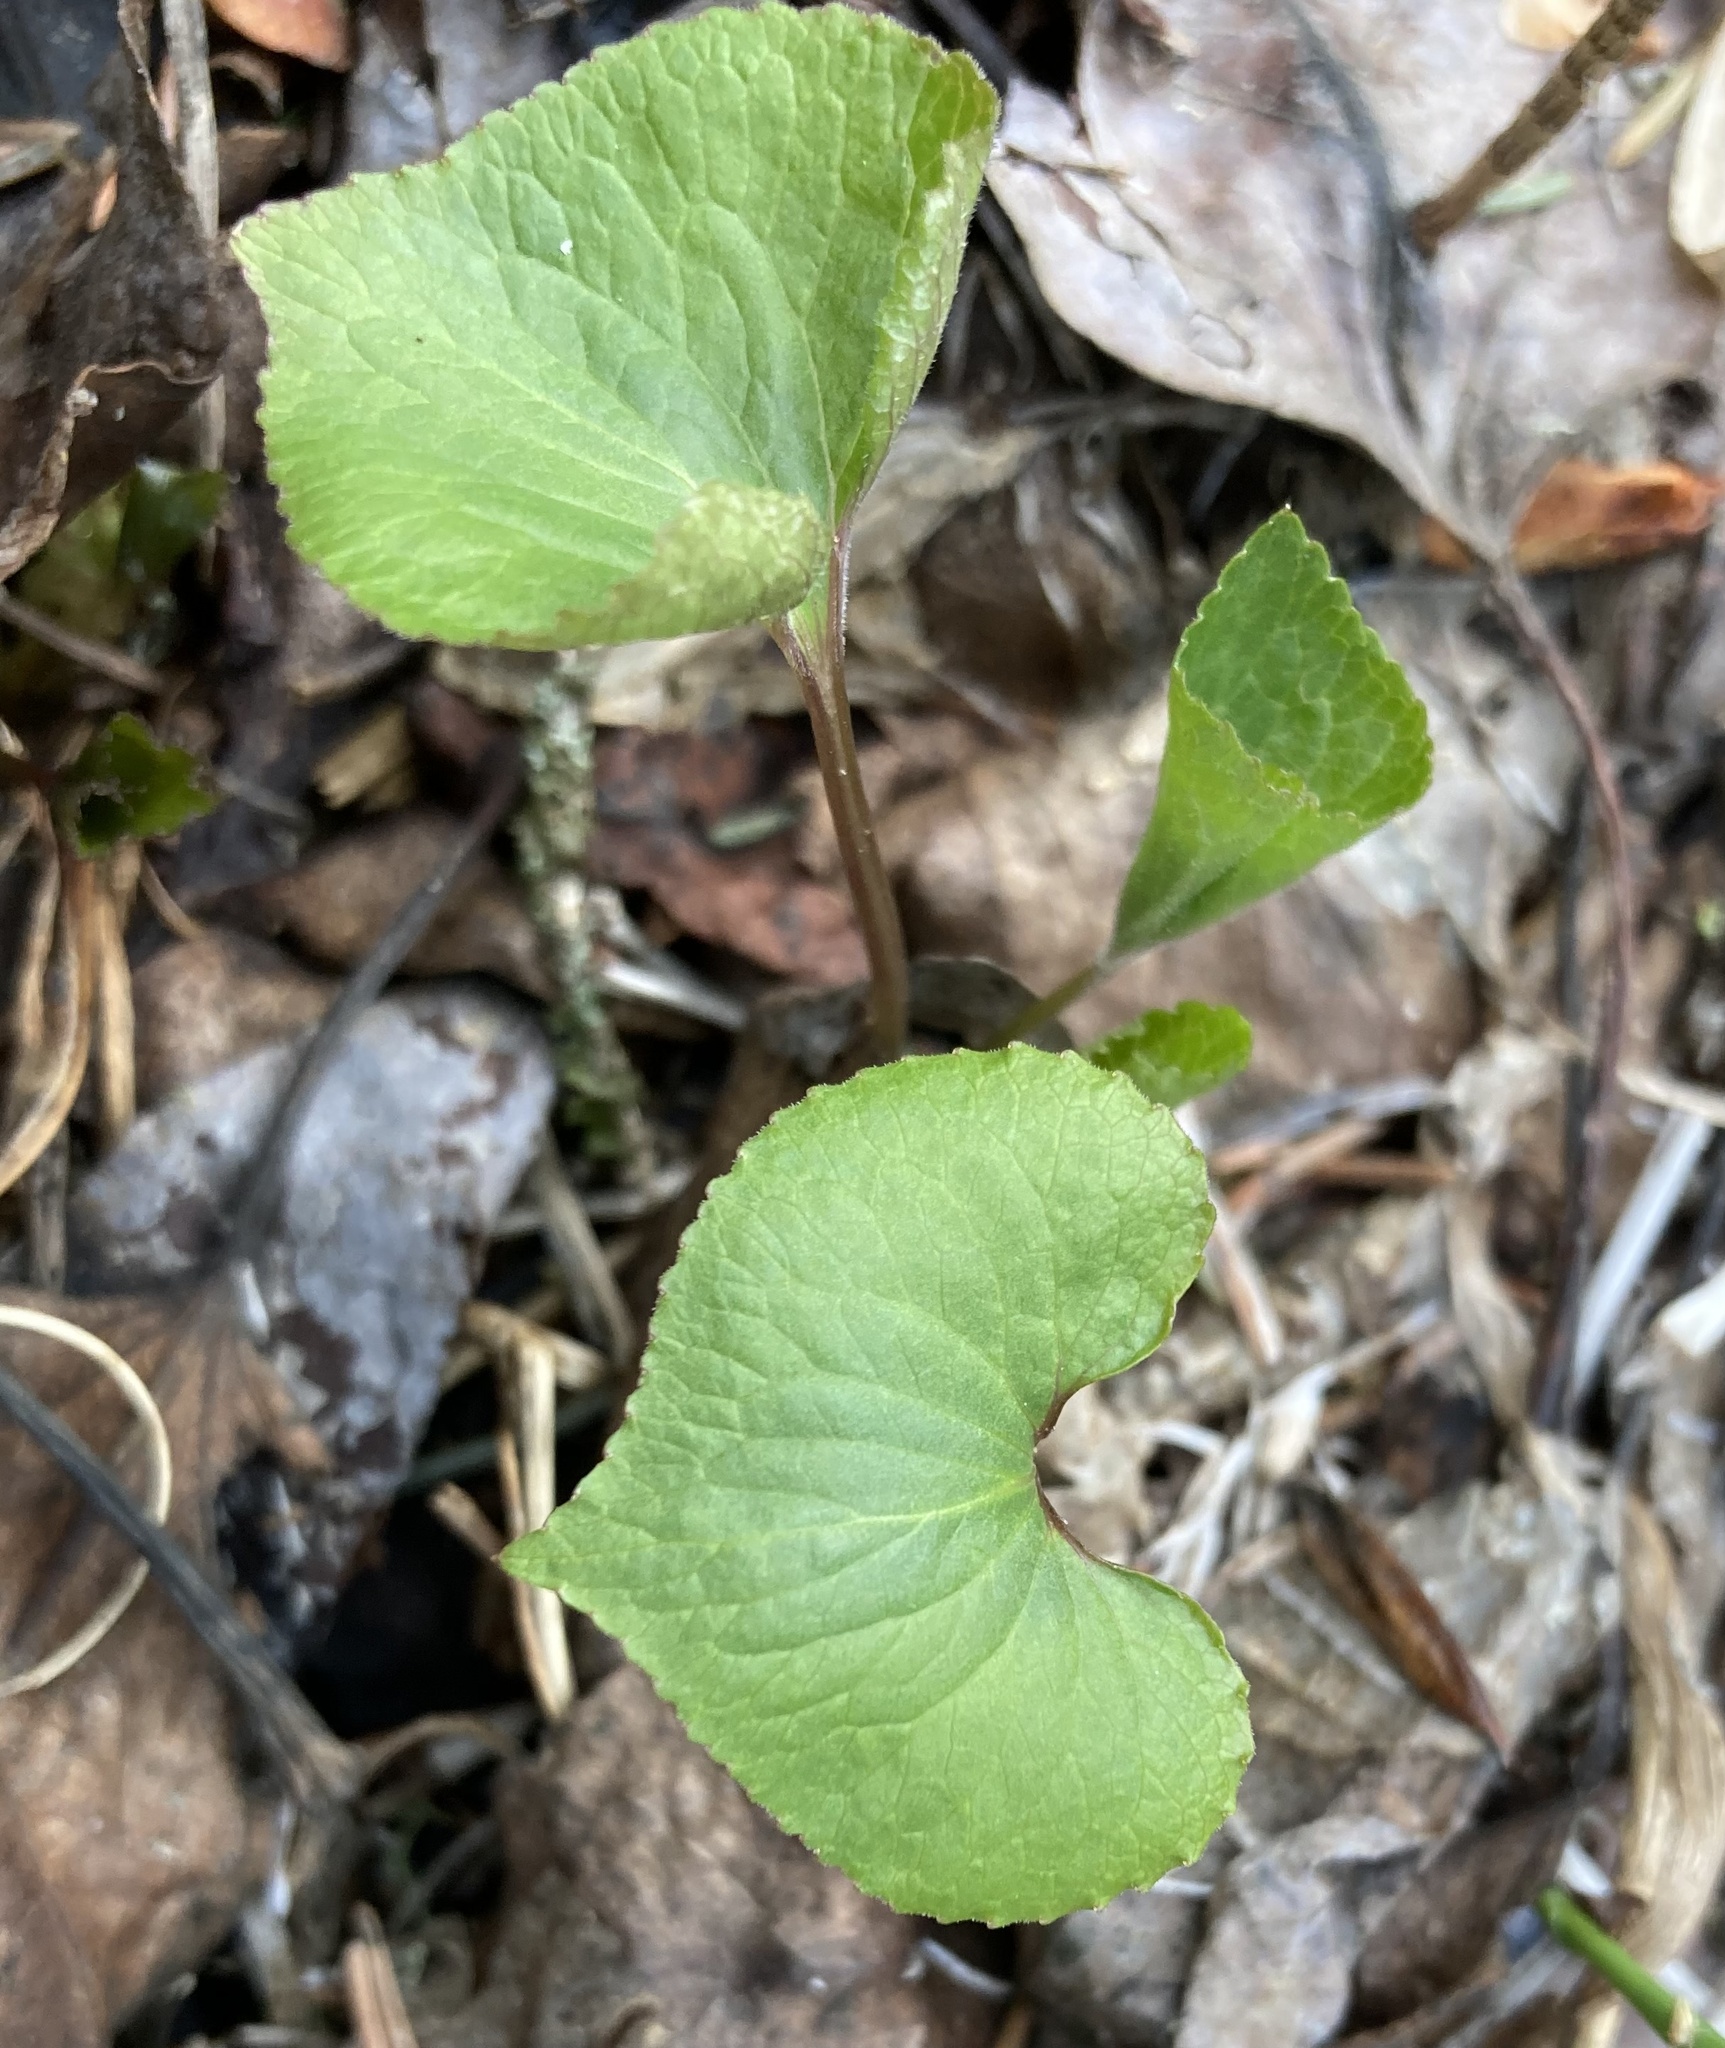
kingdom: Plantae
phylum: Tracheophyta
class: Magnoliopsida
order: Malpighiales
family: Violaceae
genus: Viola
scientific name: Viola canadensis
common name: Canada violet
